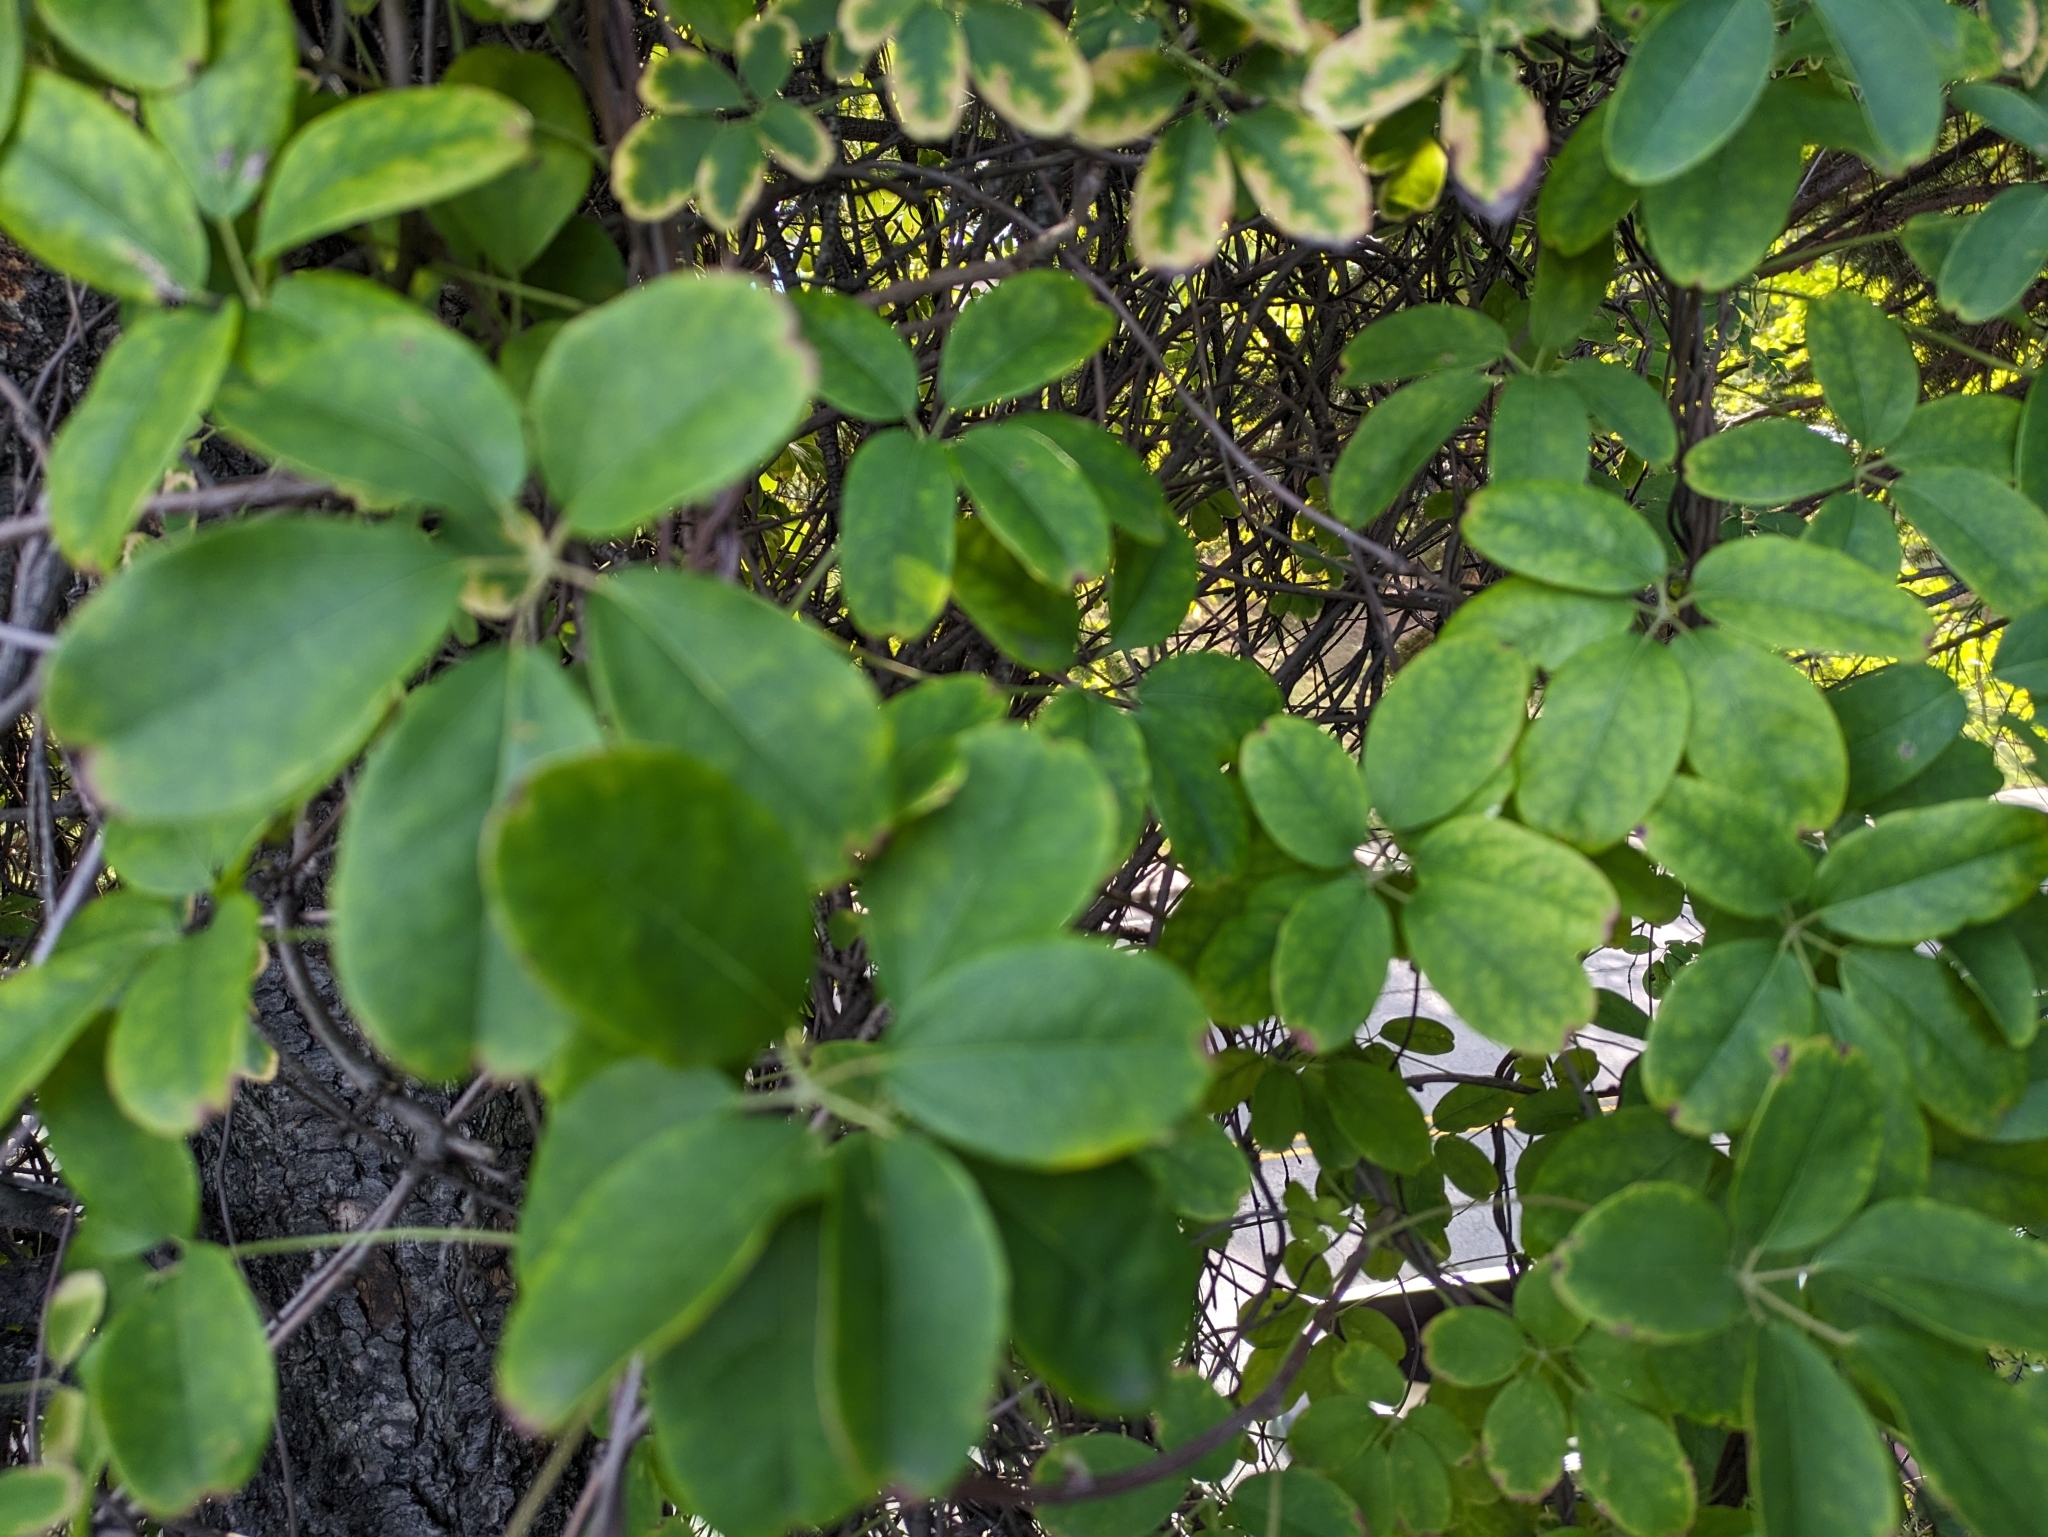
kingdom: Plantae
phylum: Tracheophyta
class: Magnoliopsida
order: Ranunculales
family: Lardizabalaceae
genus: Akebia
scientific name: Akebia quinata
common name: Five-leaf akebia
